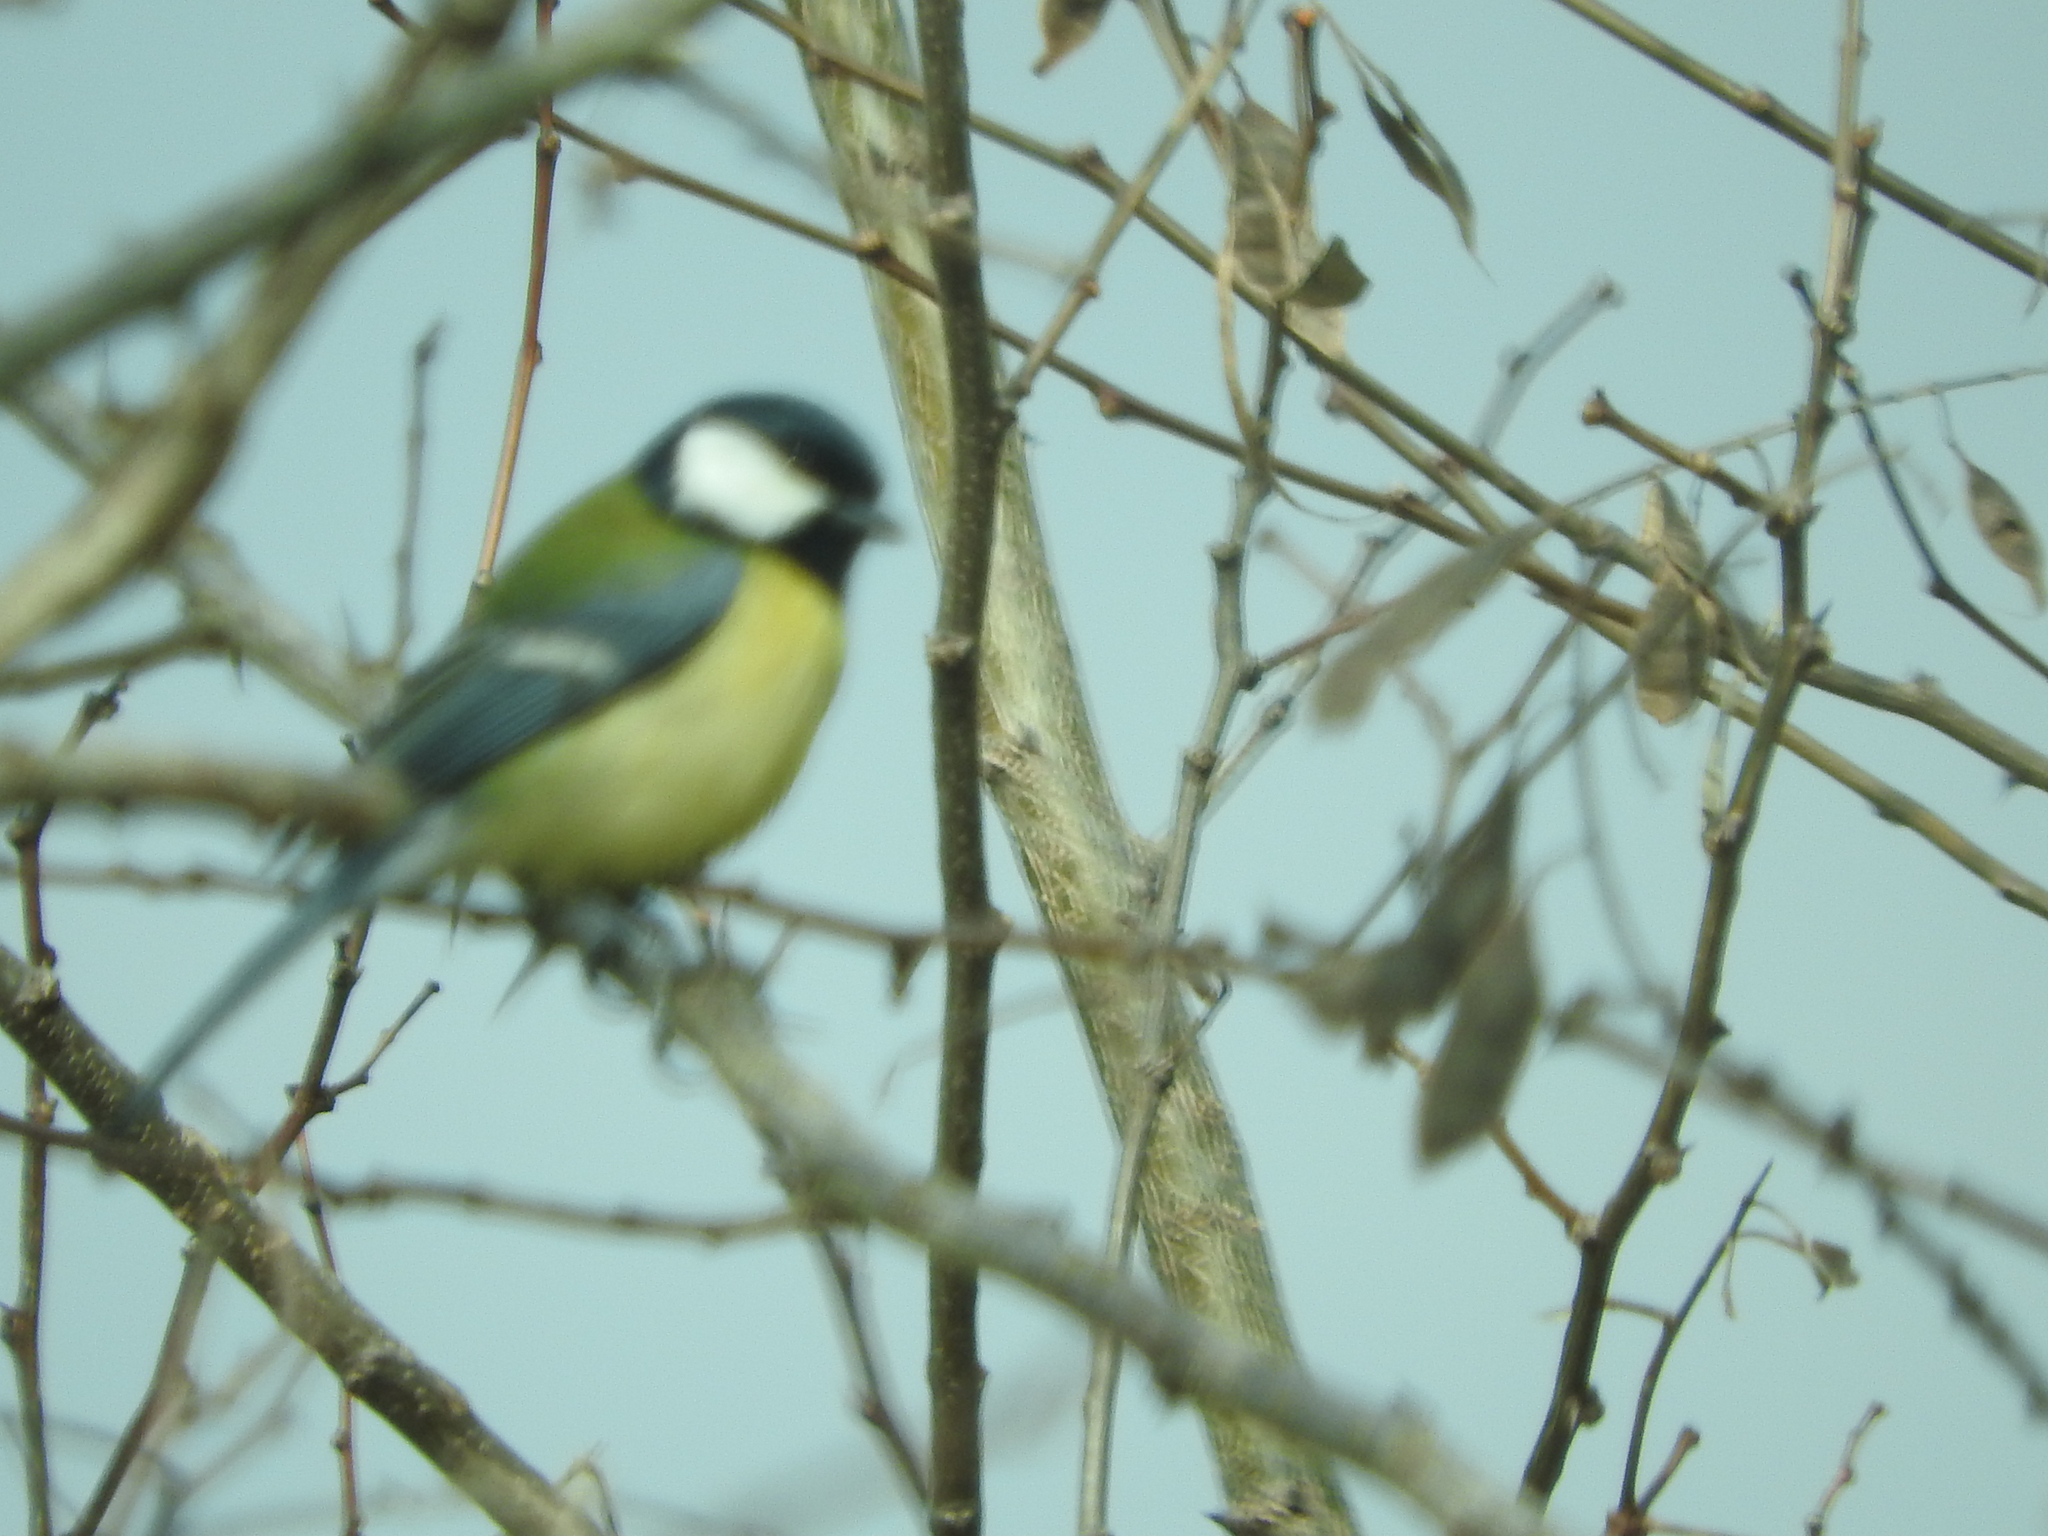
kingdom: Animalia
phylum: Chordata
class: Aves
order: Passeriformes
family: Paridae
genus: Parus
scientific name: Parus major
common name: Great tit
